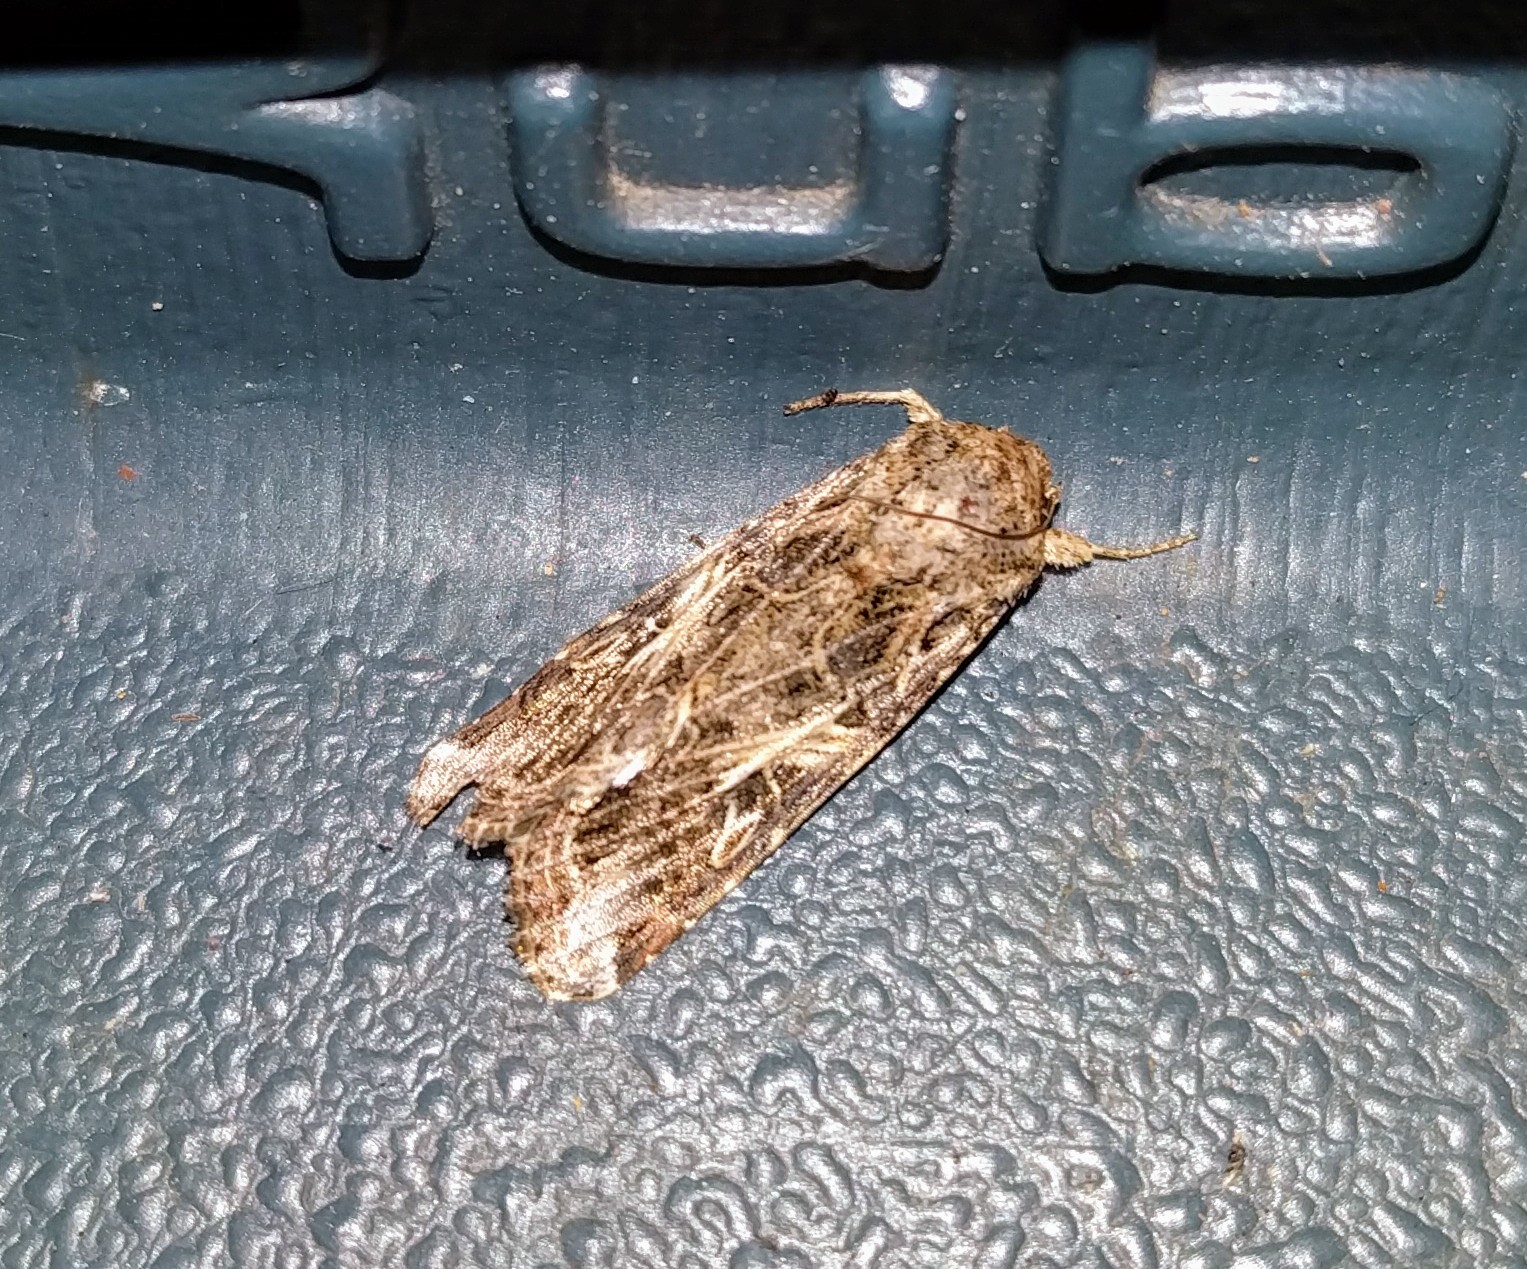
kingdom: Animalia
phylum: Arthropoda
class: Insecta
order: Lepidoptera
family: Noctuidae
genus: Spodoptera
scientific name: Spodoptera ornithogalli
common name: Yellow-striped armyworm
